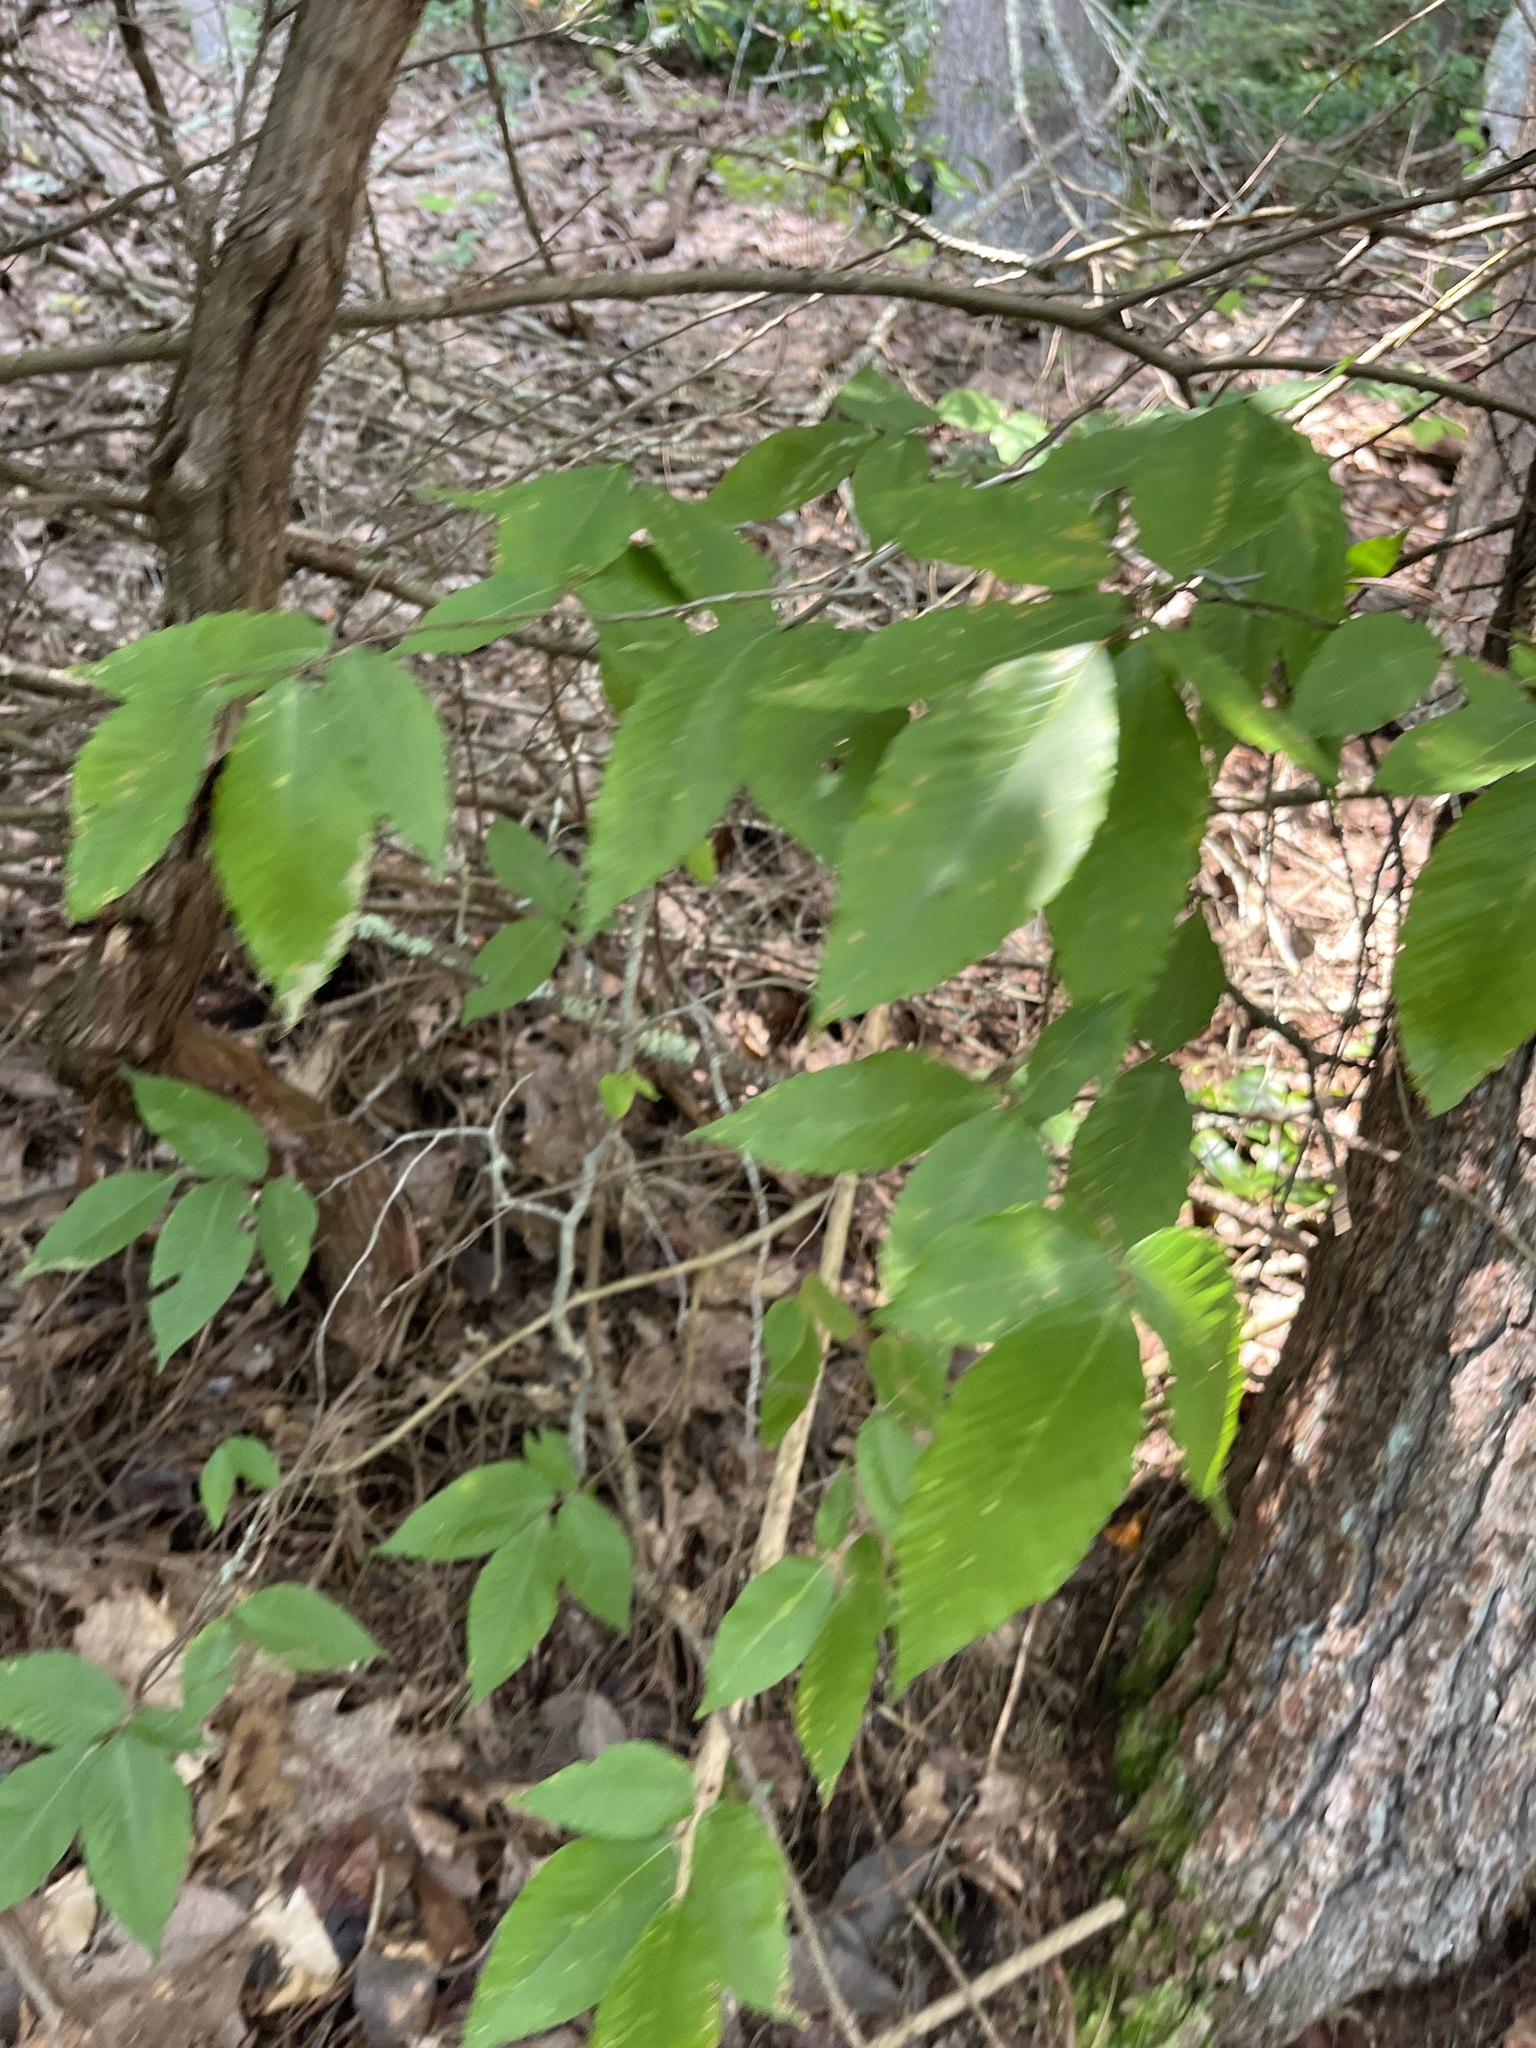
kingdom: Plantae
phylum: Tracheophyta
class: Magnoliopsida
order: Fagales
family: Fagaceae
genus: Fagus
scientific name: Fagus grandifolia
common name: American beech
